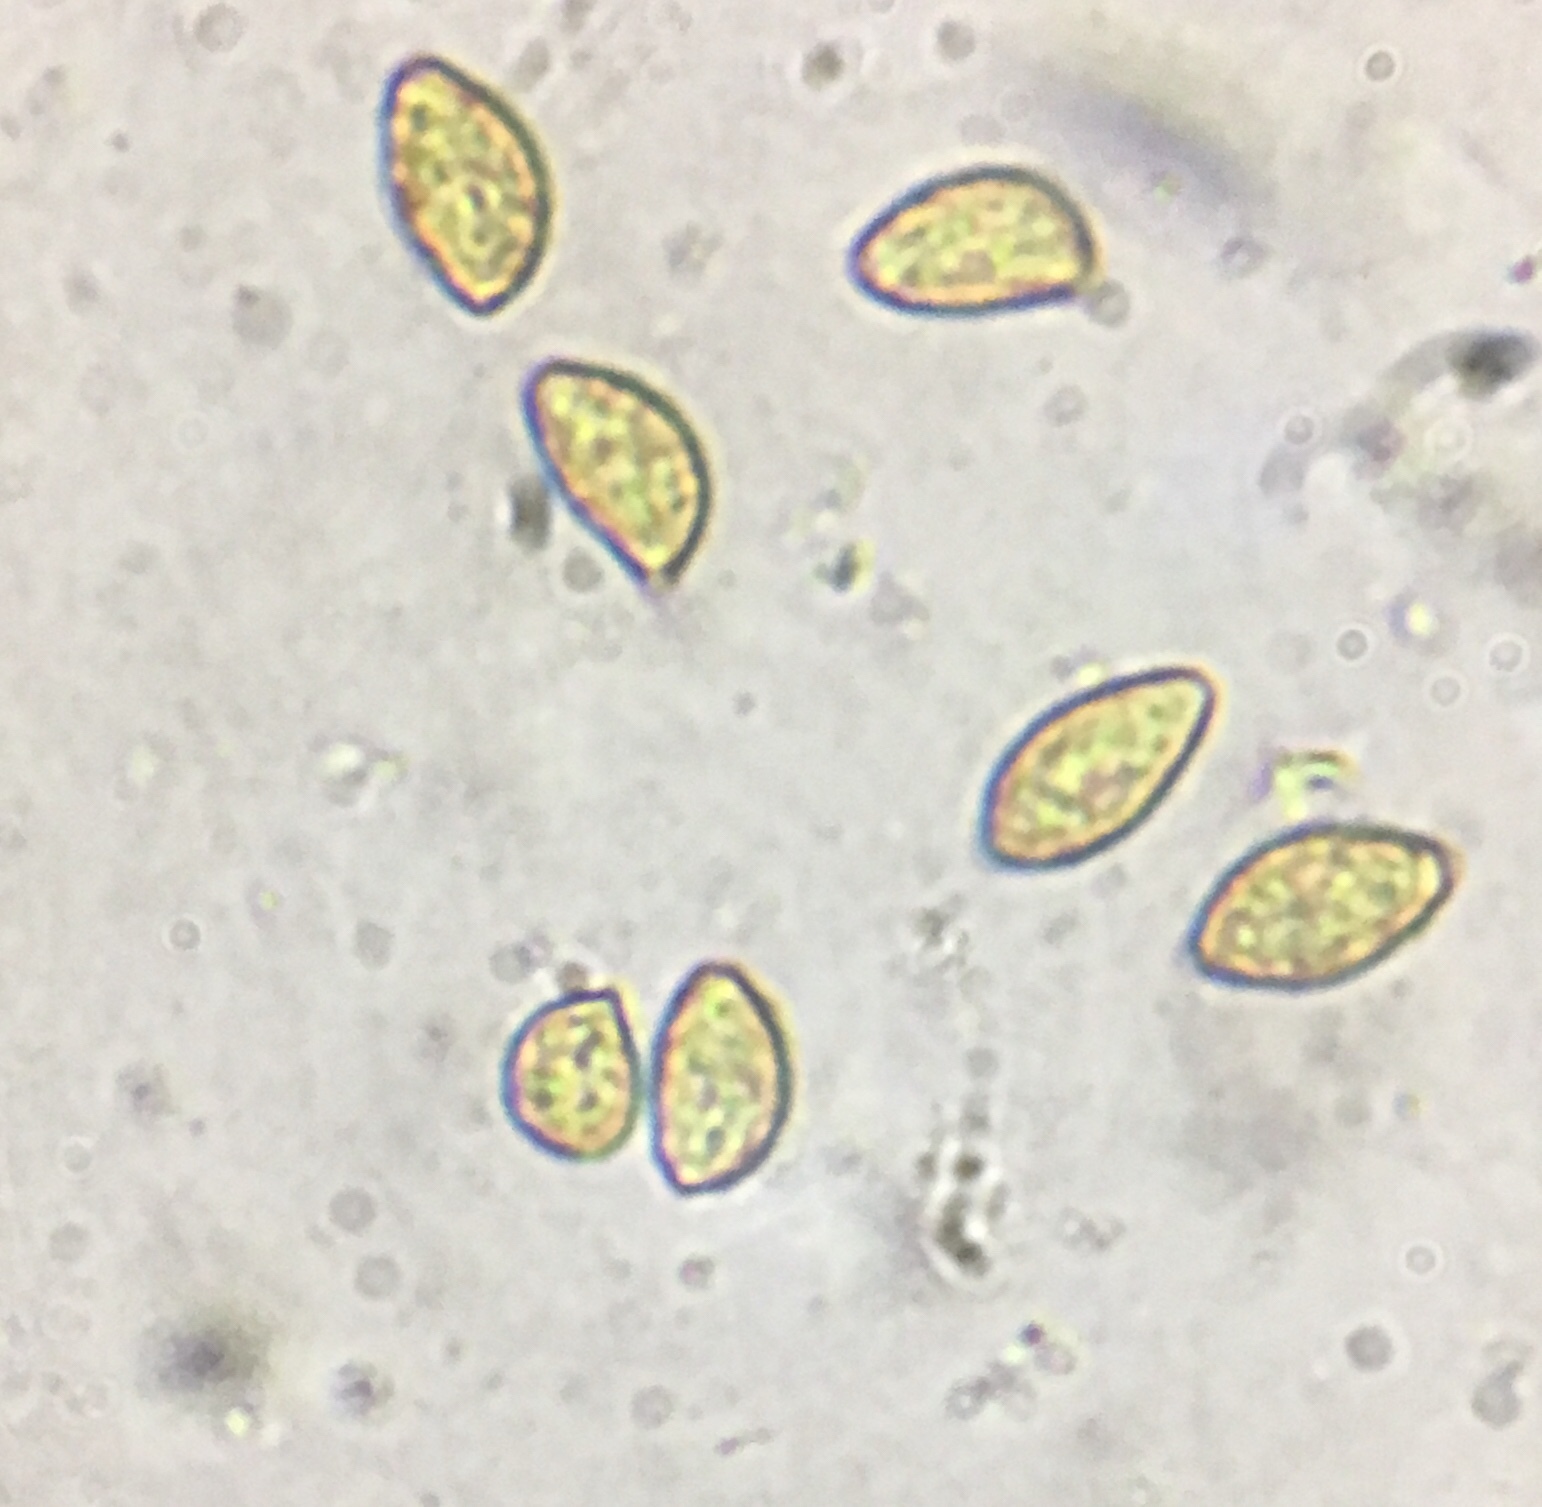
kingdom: Fungi
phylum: Basidiomycota
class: Agaricomycetes
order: Agaricales
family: Hymenogastraceae
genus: Gymnopilus
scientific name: Gymnopilus luteus
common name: Yellow gymnopilus
